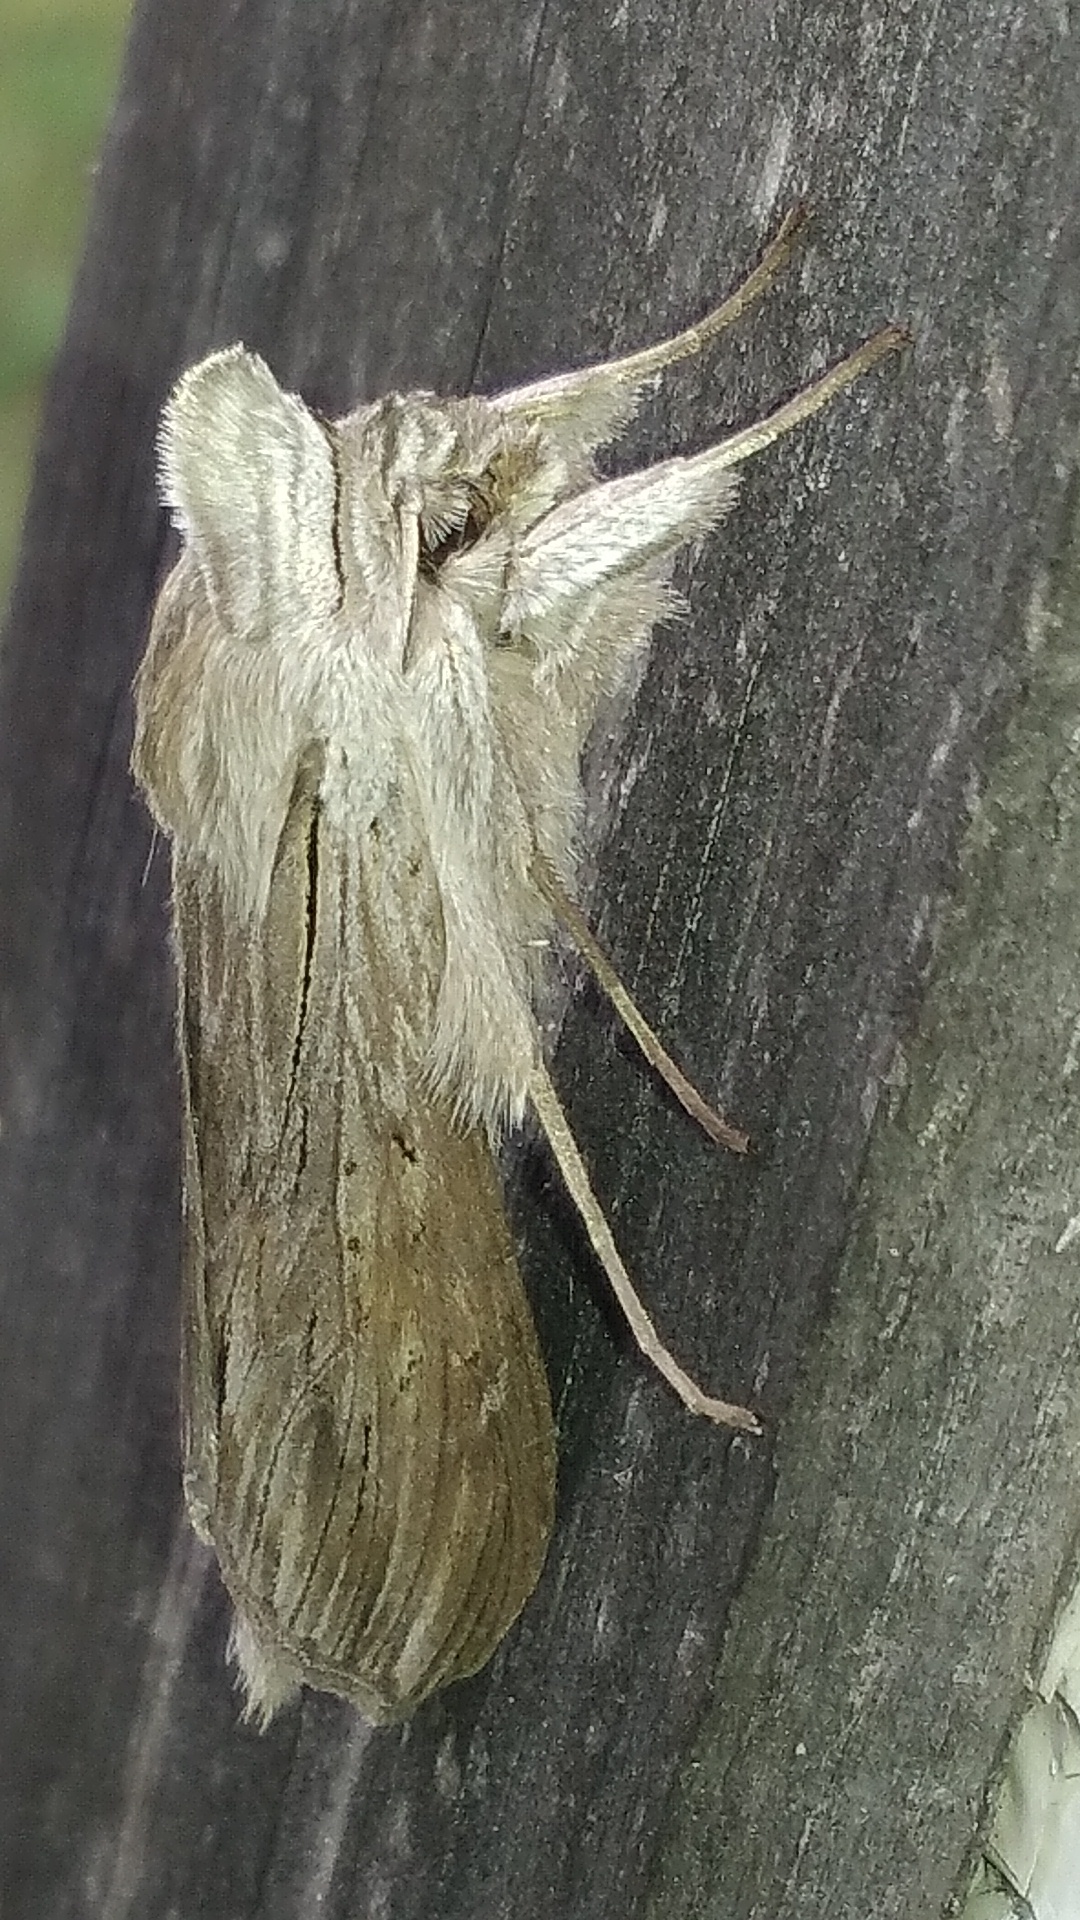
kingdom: Animalia
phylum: Arthropoda
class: Insecta
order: Lepidoptera
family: Noctuidae
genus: Cucullia
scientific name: Cucullia umbratica
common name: Shark
